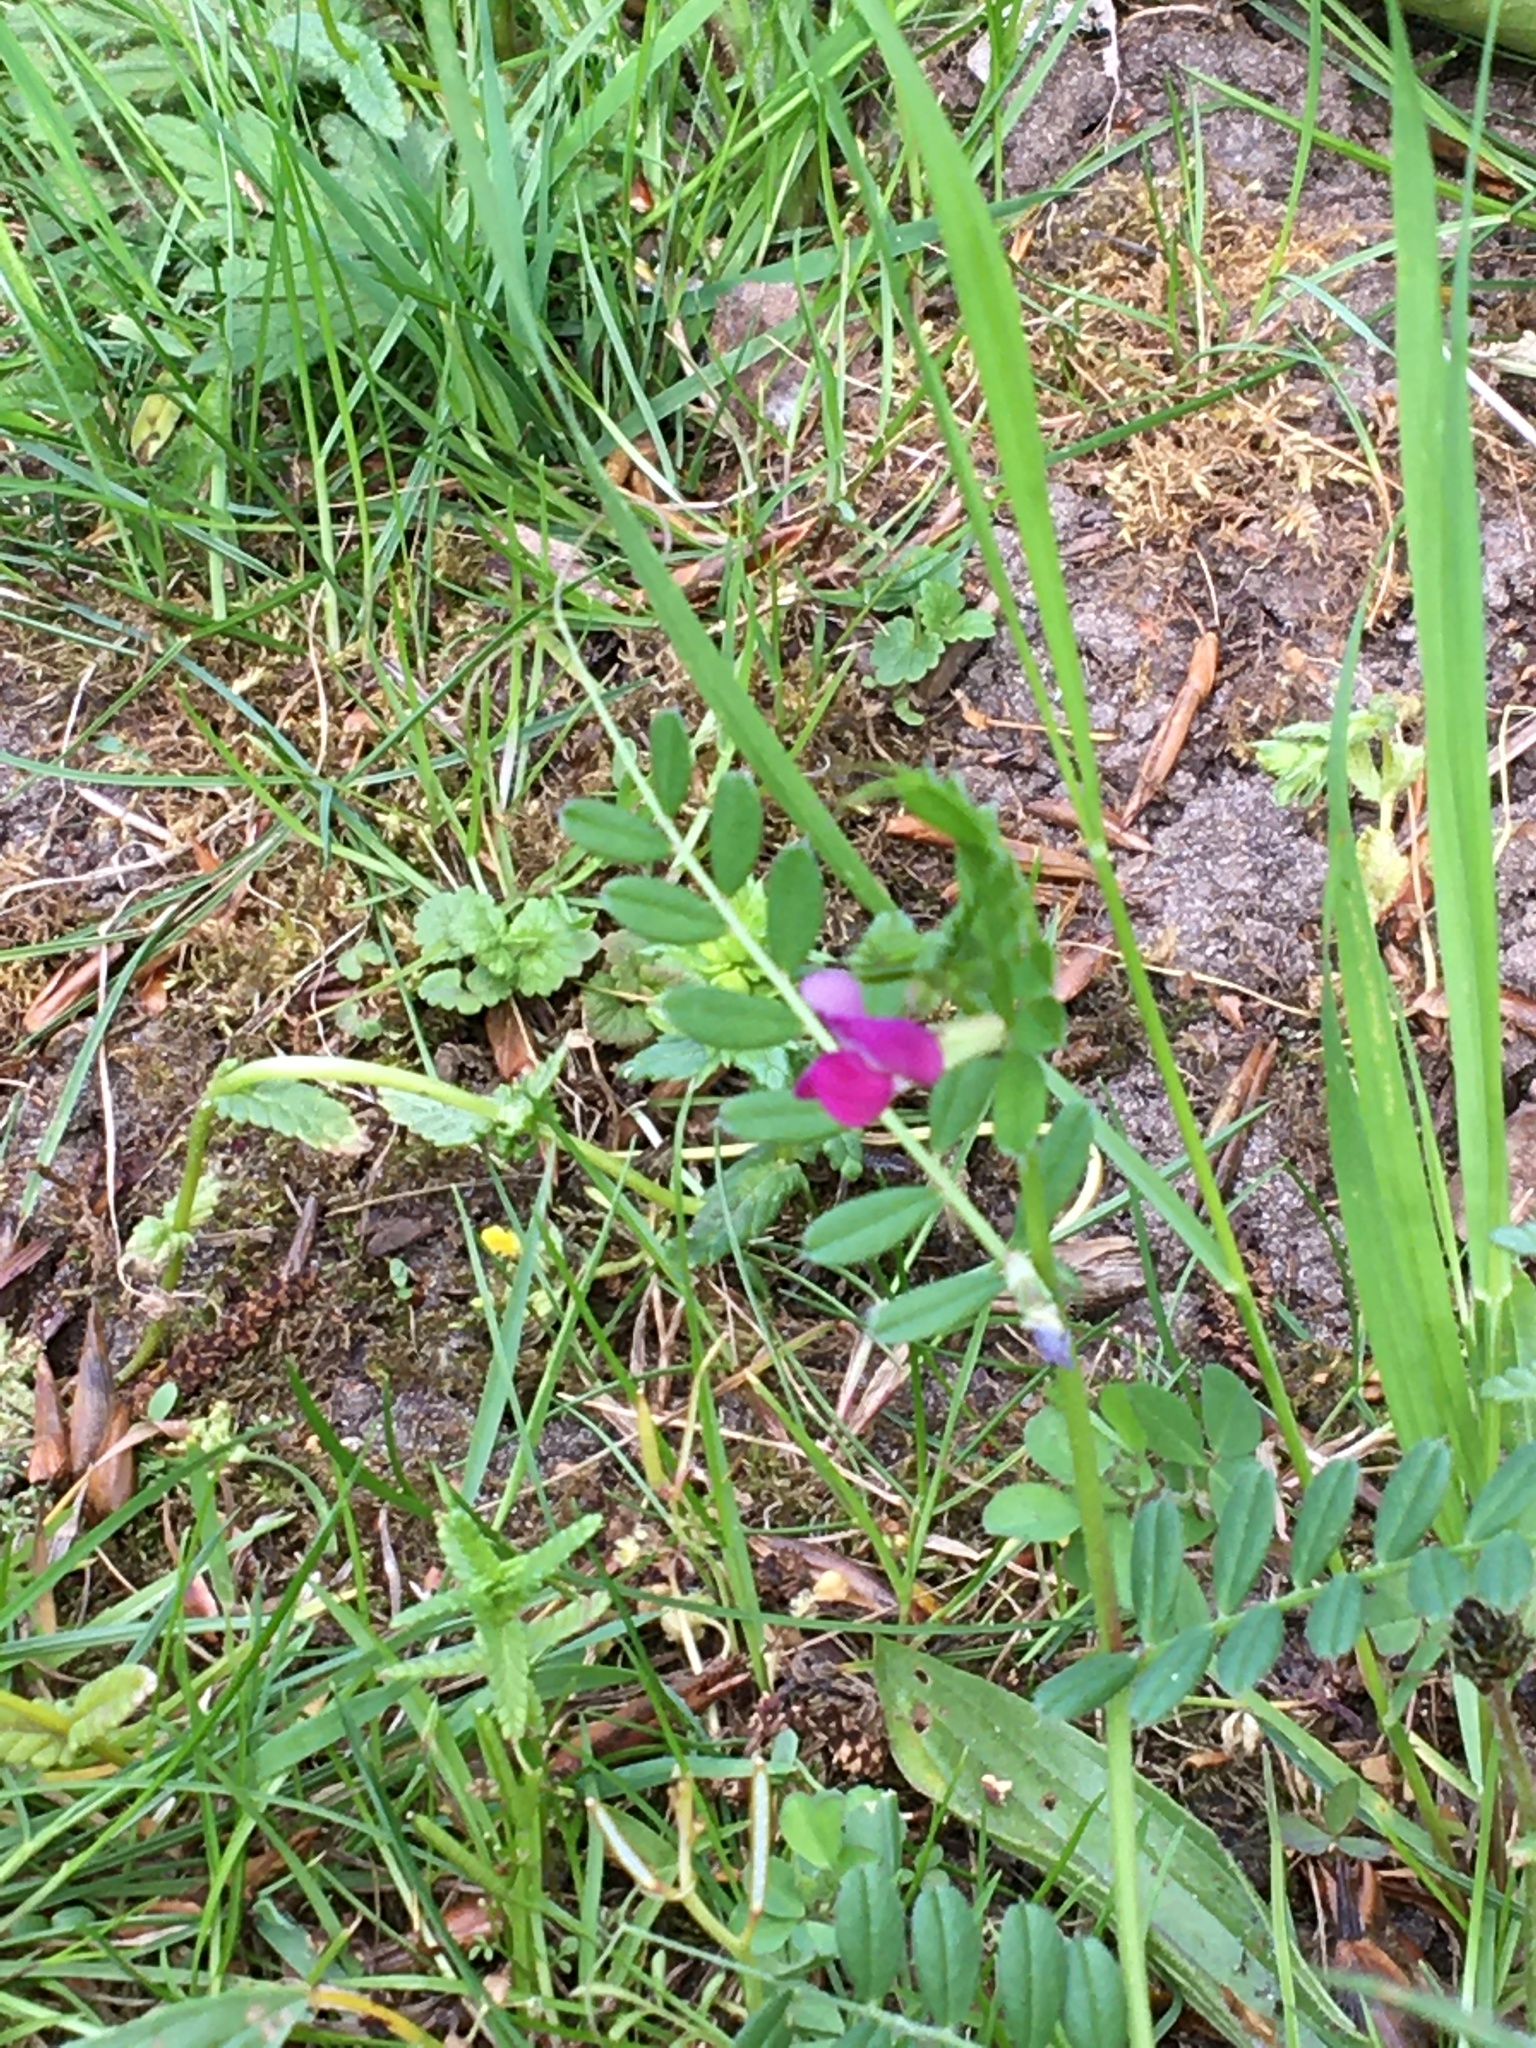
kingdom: Plantae
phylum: Tracheophyta
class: Magnoliopsida
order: Fabales
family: Fabaceae
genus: Vicia
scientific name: Vicia sativa
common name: Garden vetch
